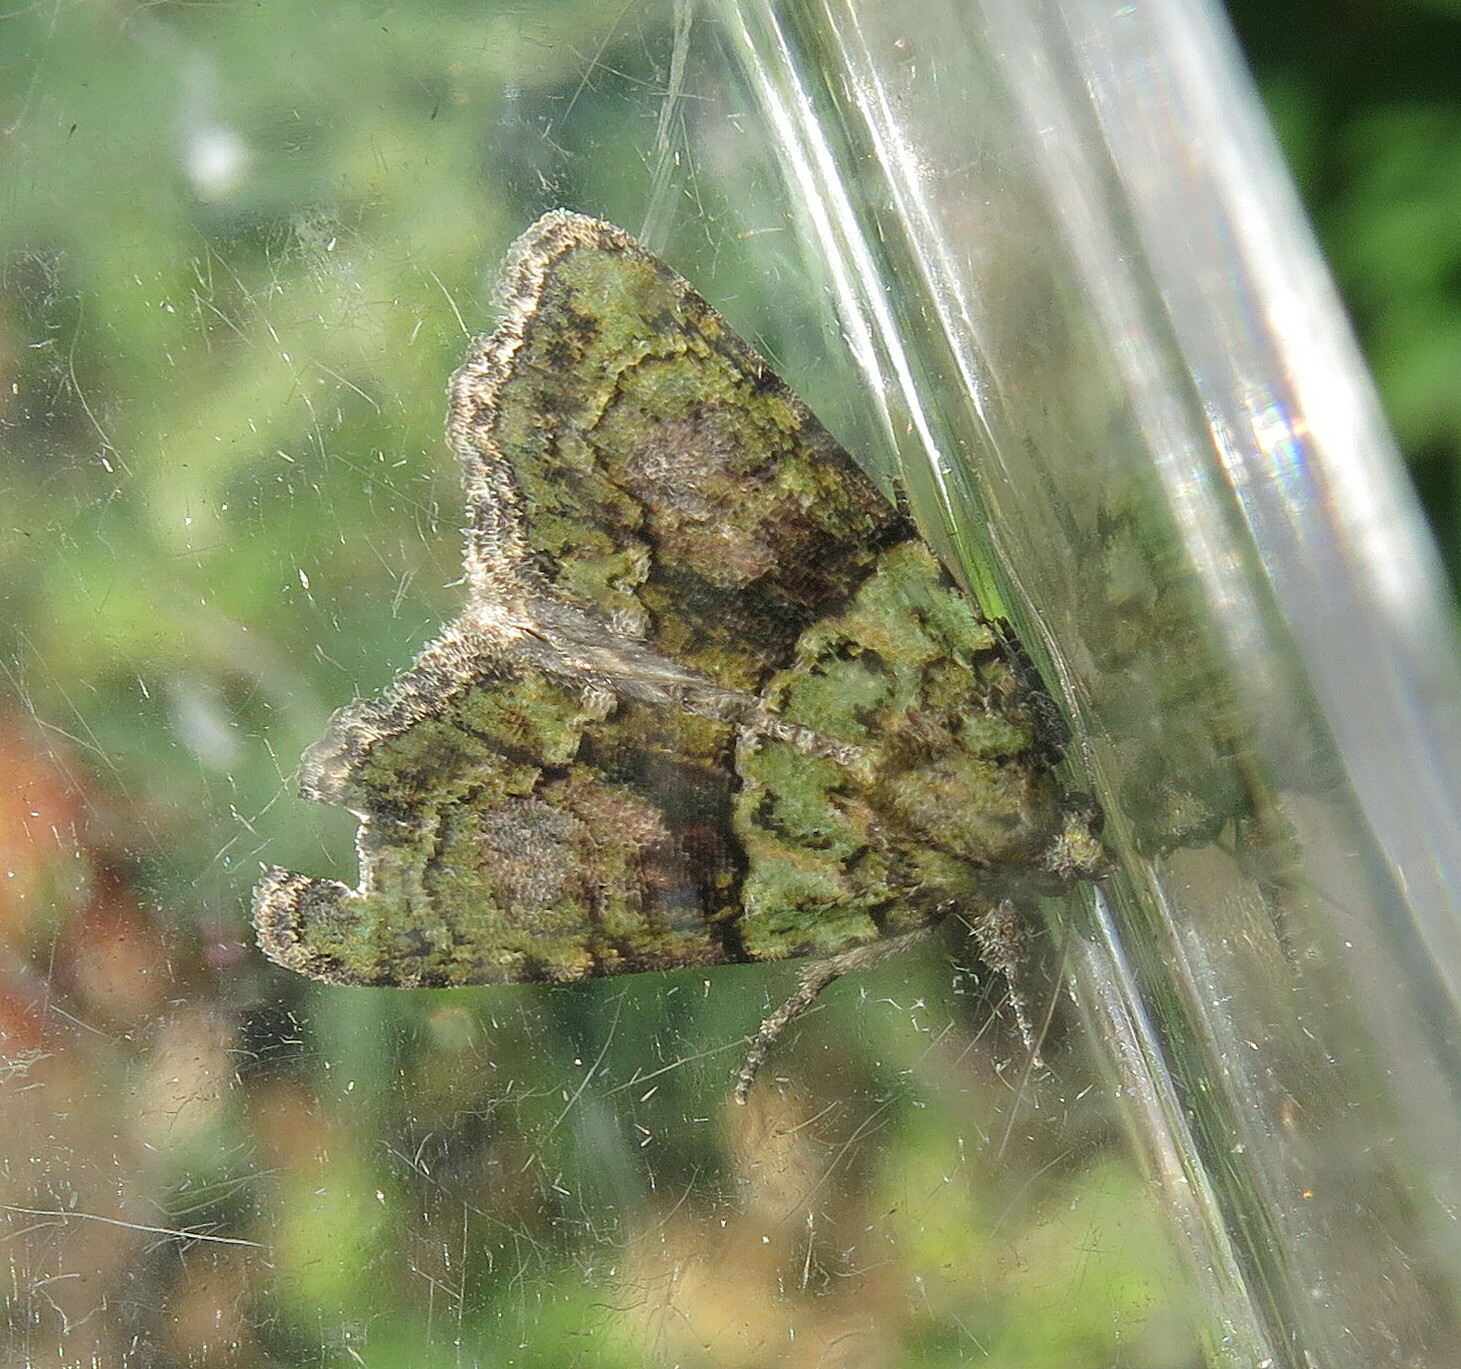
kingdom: Animalia
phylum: Arthropoda
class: Insecta
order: Lepidoptera
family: Noctuidae
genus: Cryphia
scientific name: Cryphia algae
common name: Tree-lichen beauty
